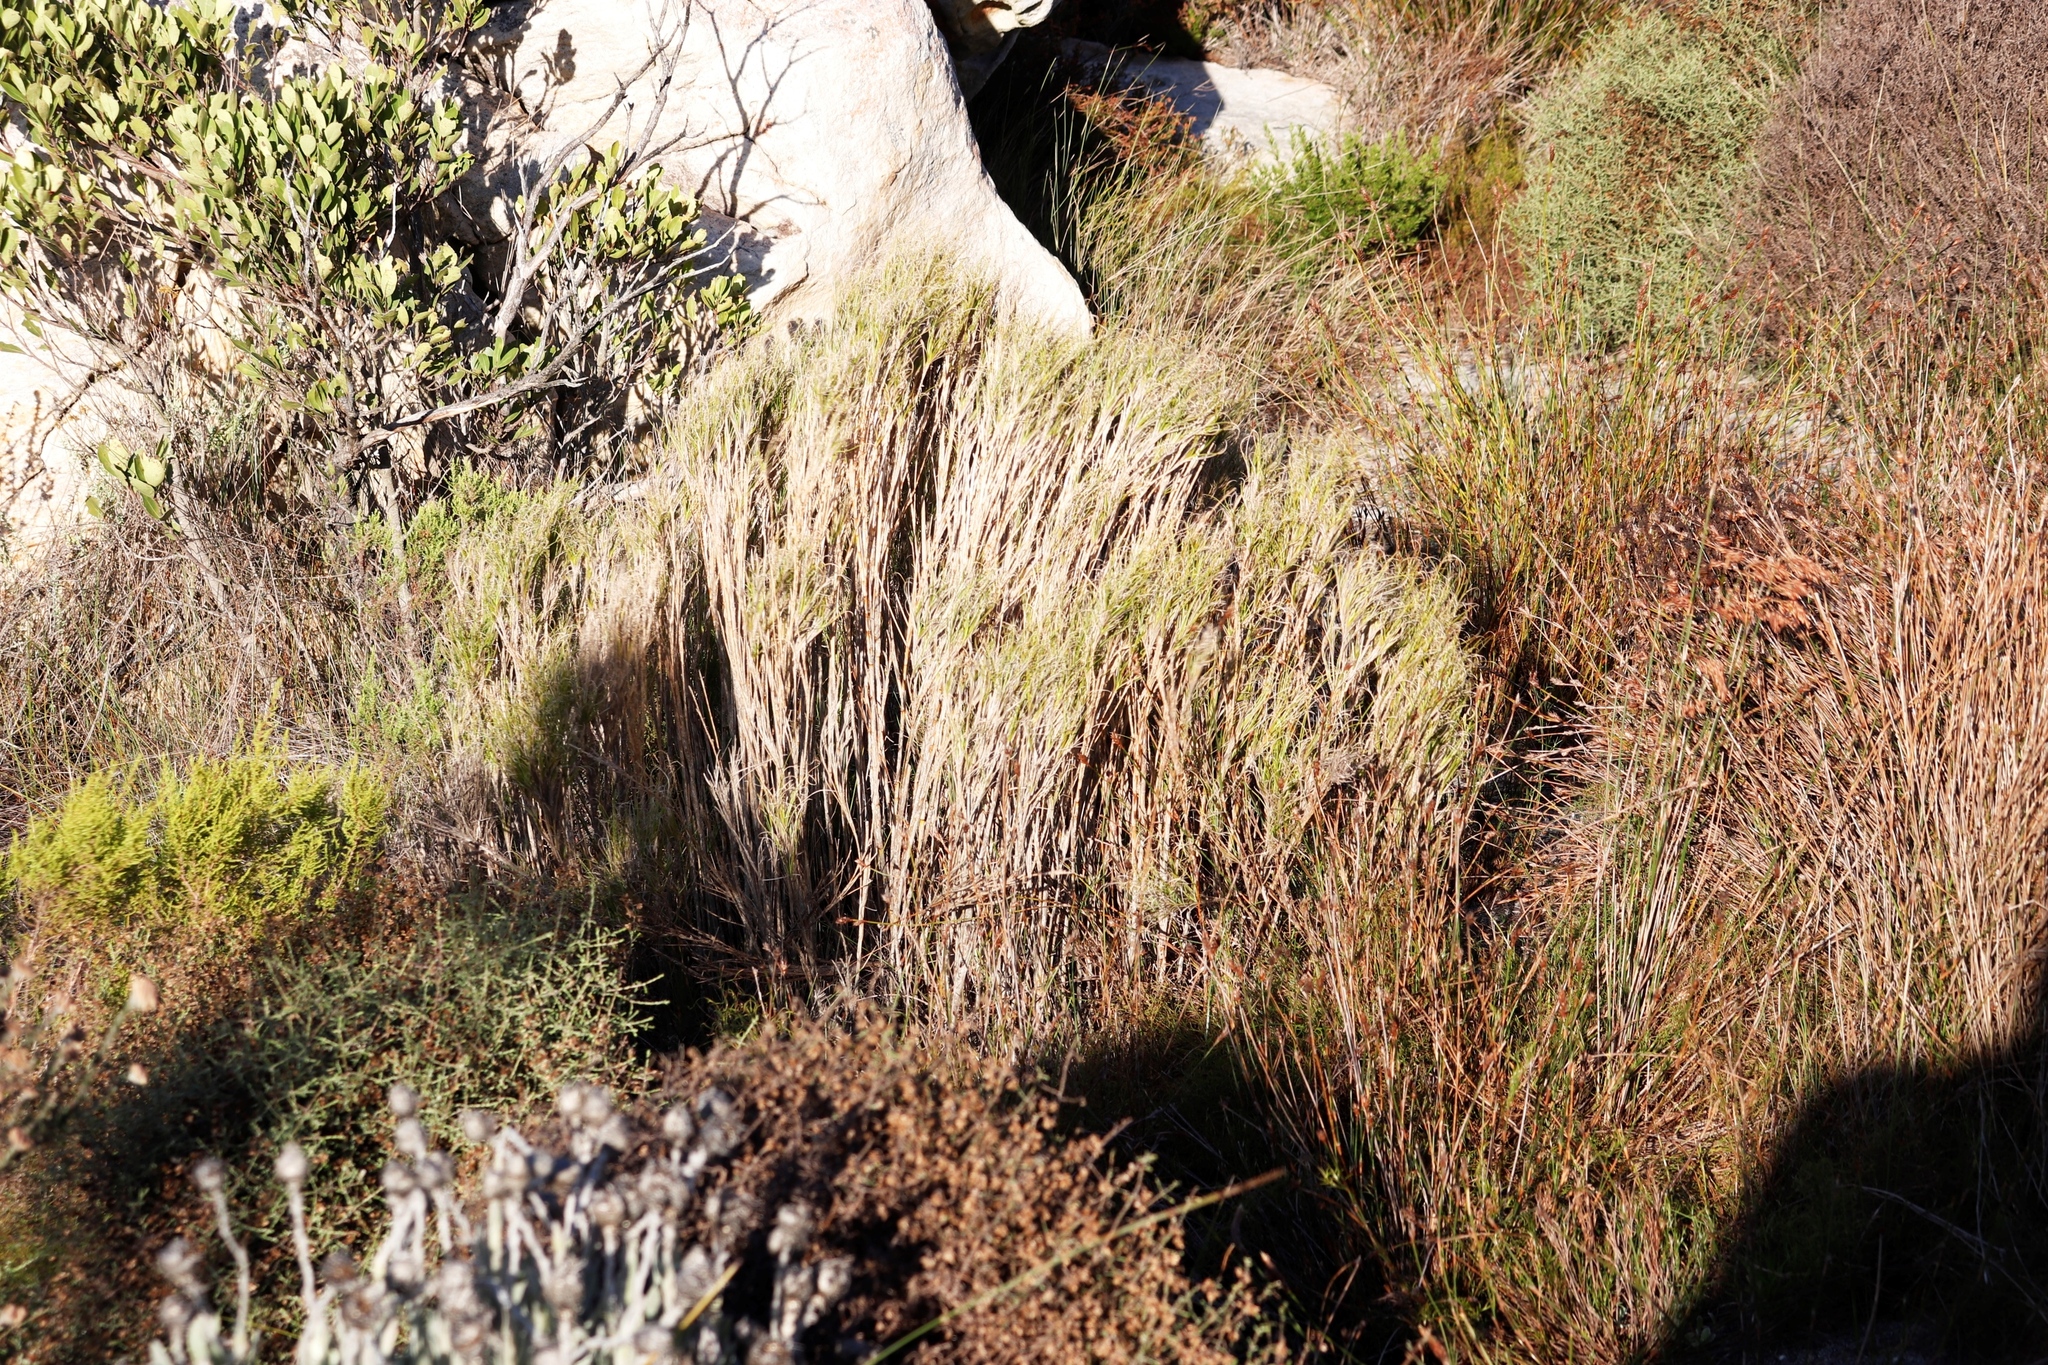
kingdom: Plantae
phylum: Tracheophyta
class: Liliopsida
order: Poales
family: Poaceae
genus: Pseudopentameris
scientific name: Pseudopentameris macrantha
